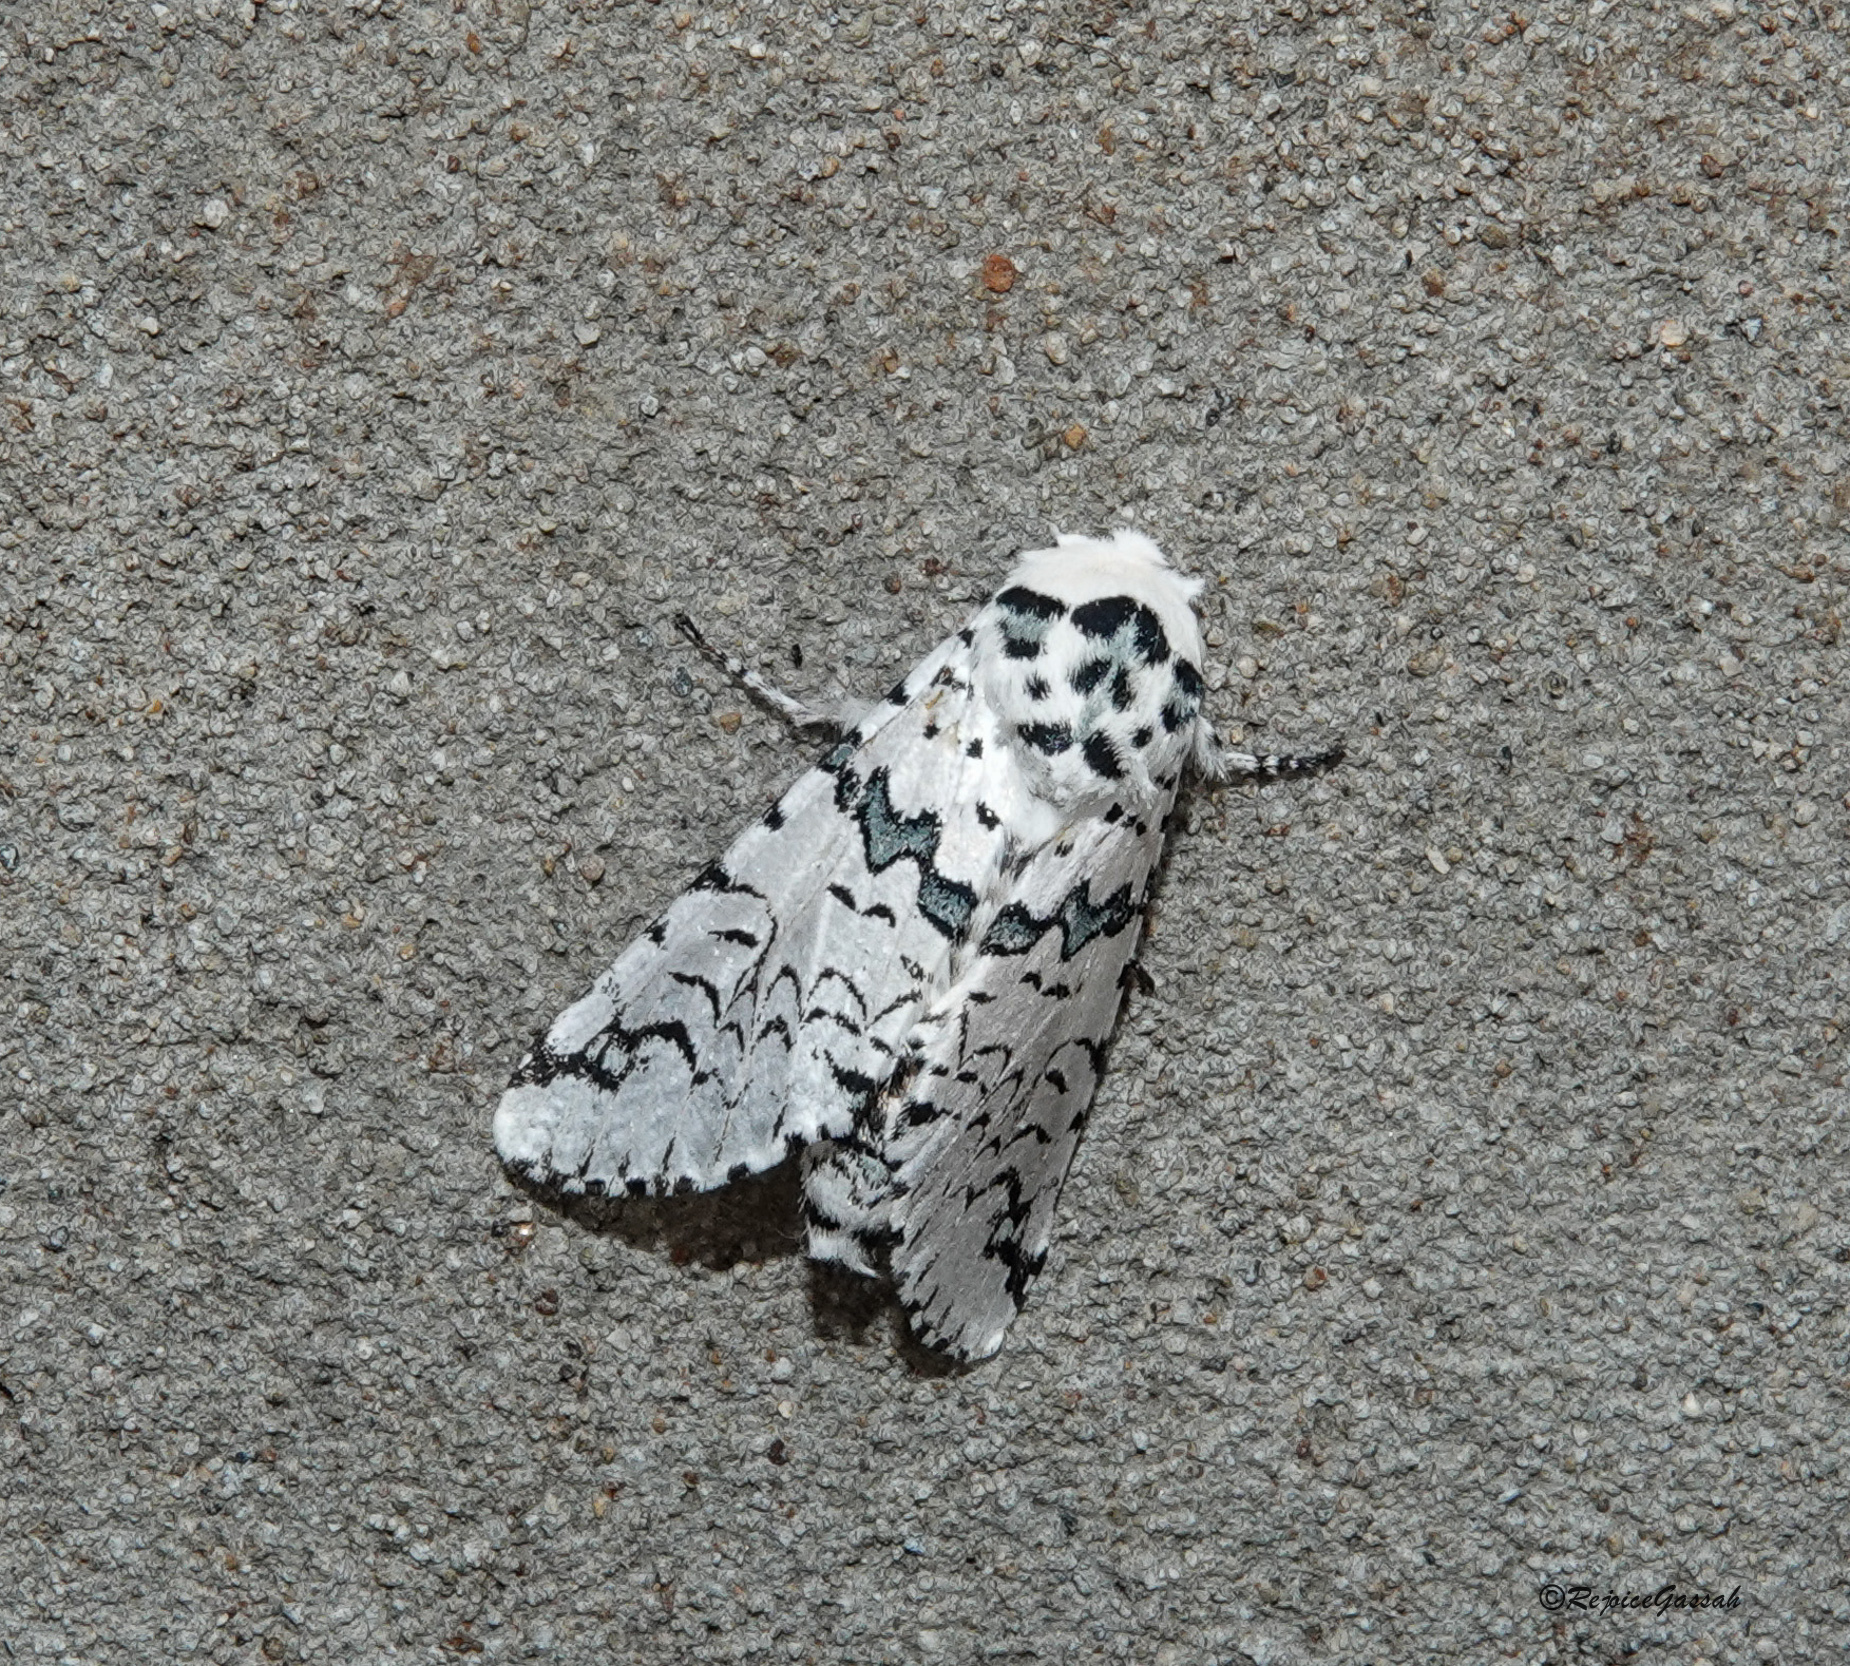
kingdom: Animalia
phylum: Arthropoda
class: Insecta
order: Lepidoptera
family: Notodontidae
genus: Neocerura
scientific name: Neocerura liturata
